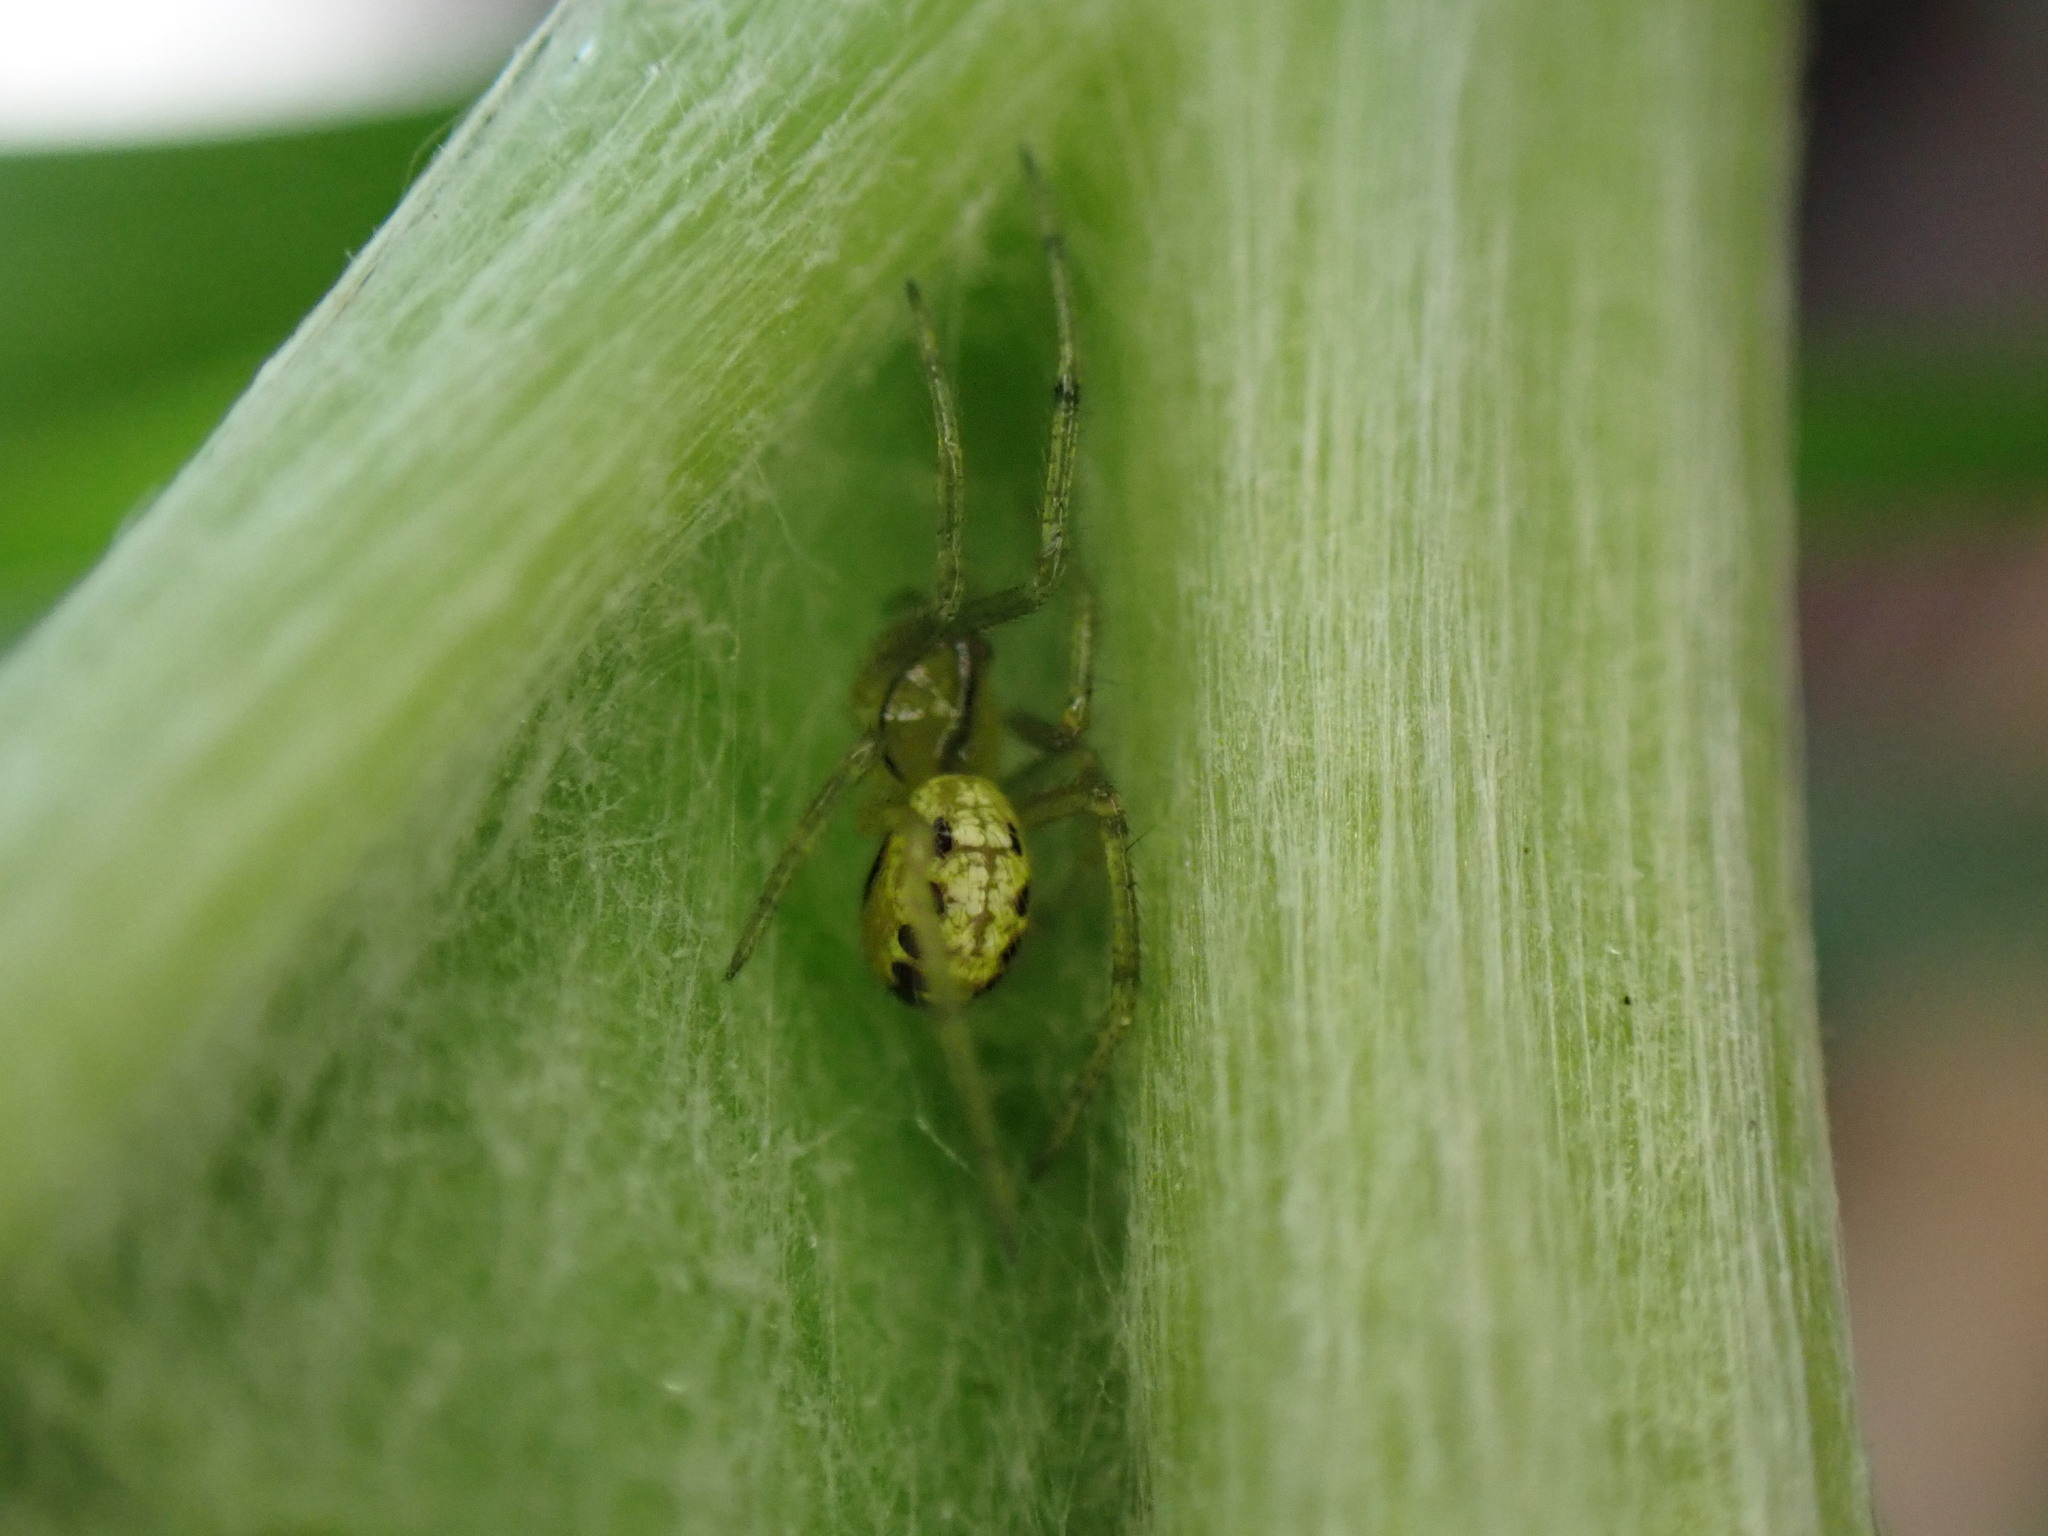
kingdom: Animalia
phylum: Arthropoda
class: Arachnida
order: Araneae
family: Theridiidae
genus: Enoplognatha
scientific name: Enoplognatha
